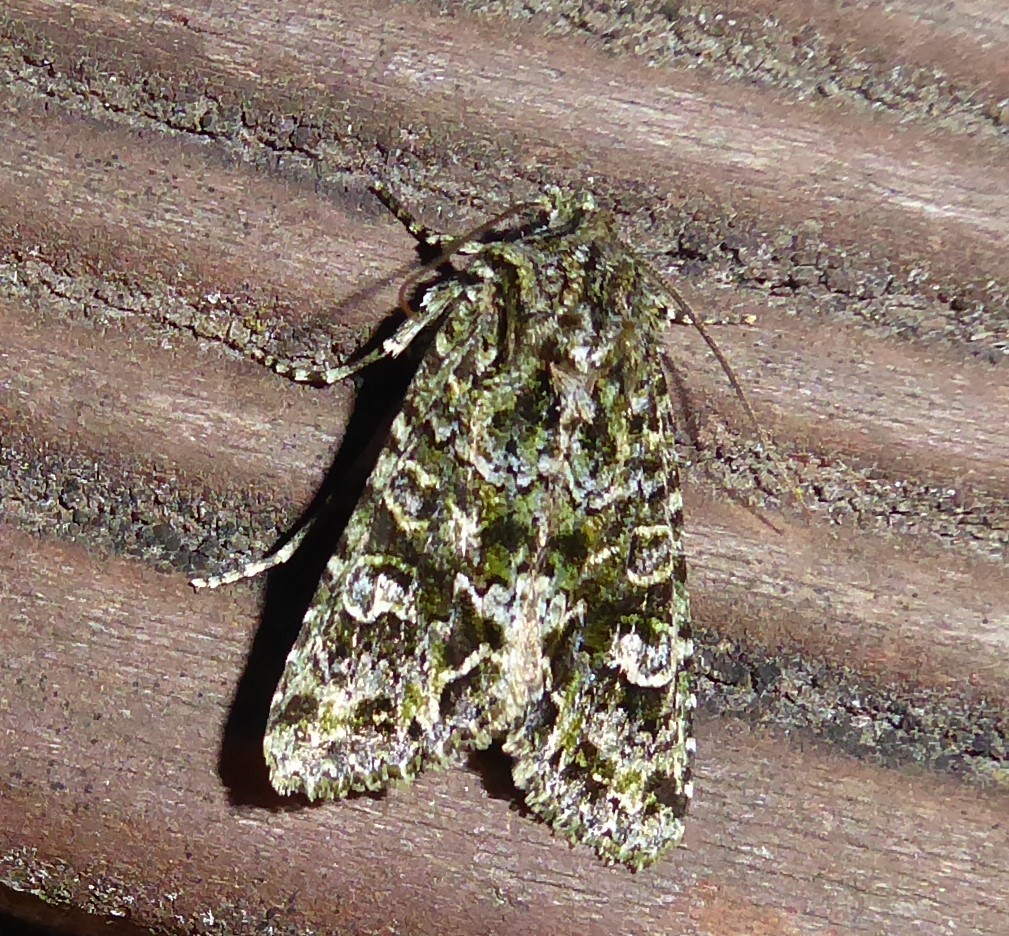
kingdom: Animalia
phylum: Arthropoda
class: Insecta
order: Lepidoptera
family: Noctuidae
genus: Ichneutica
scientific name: Ichneutica
